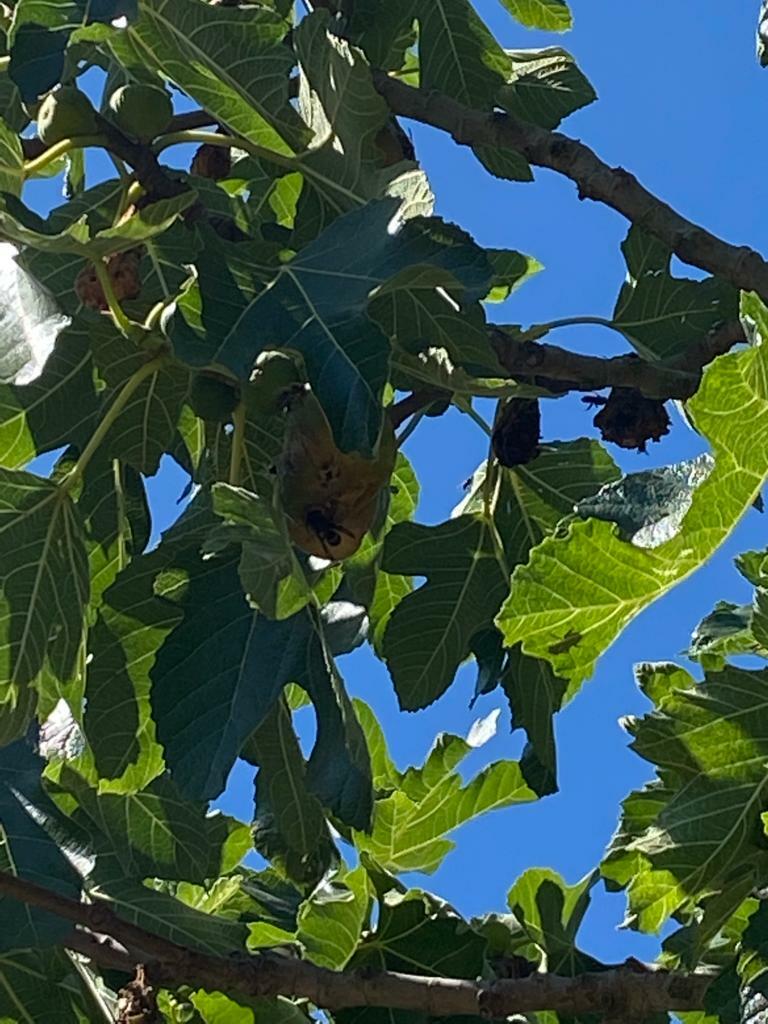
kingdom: Animalia
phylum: Arthropoda
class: Insecta
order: Hymenoptera
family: Vespidae
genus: Vespa
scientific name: Vespa velutina
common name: Asian hornet
